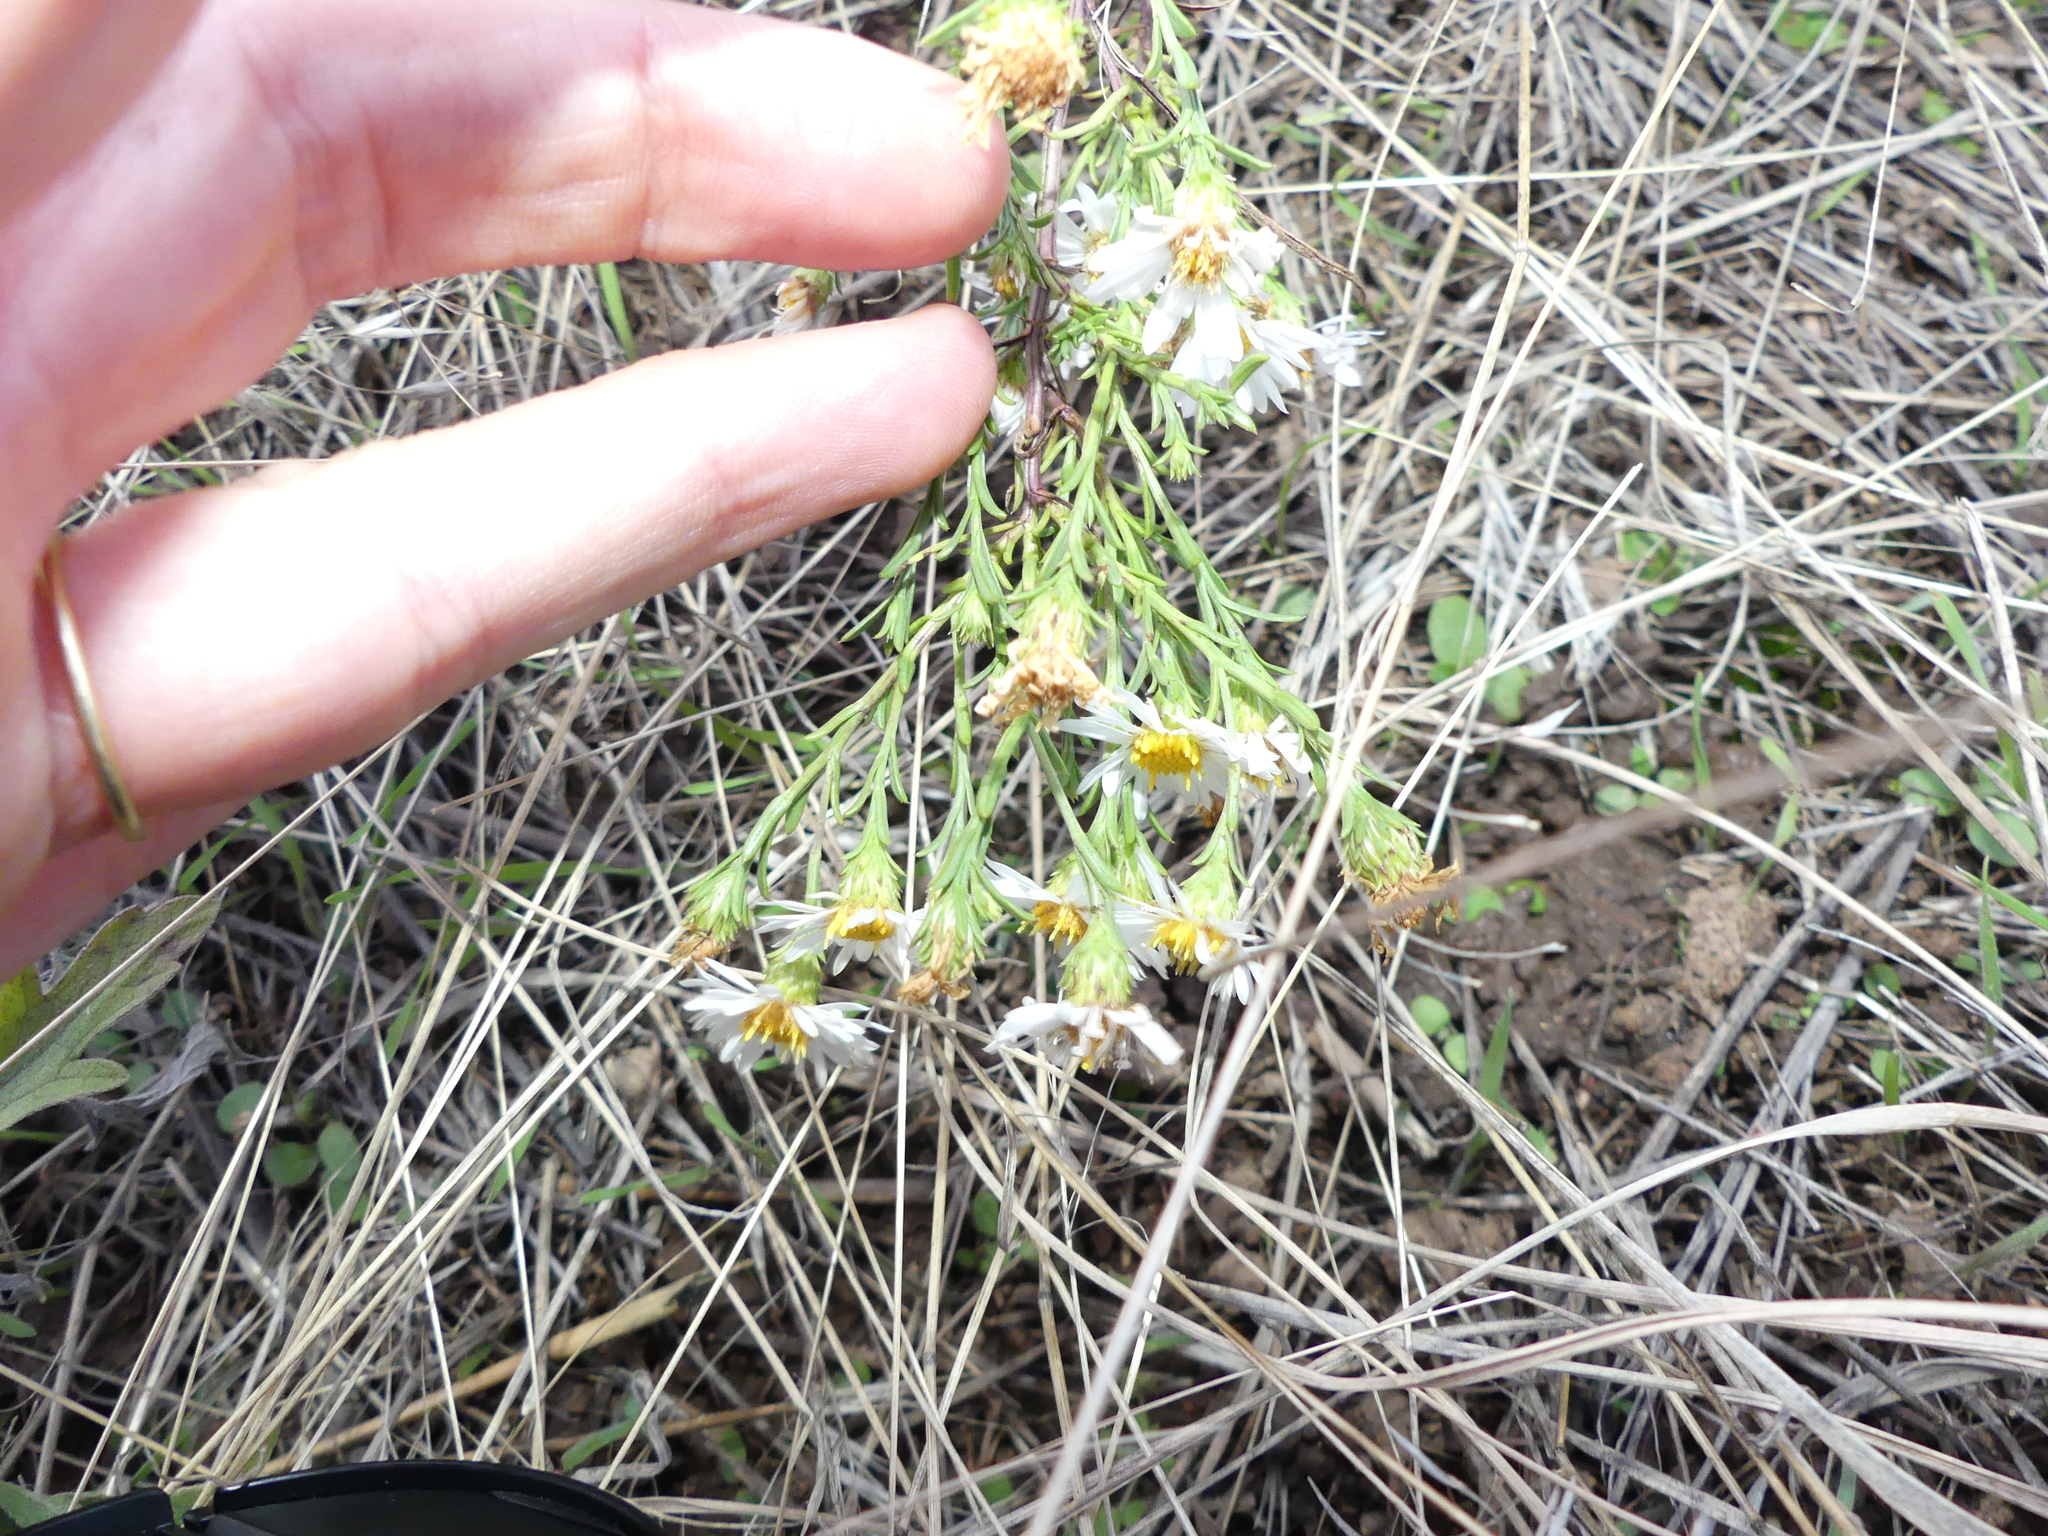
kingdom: Plantae
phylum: Tracheophyta
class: Magnoliopsida
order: Asterales
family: Asteraceae
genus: Symphyotrichum
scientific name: Symphyotrichum ericoides
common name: Heath aster
